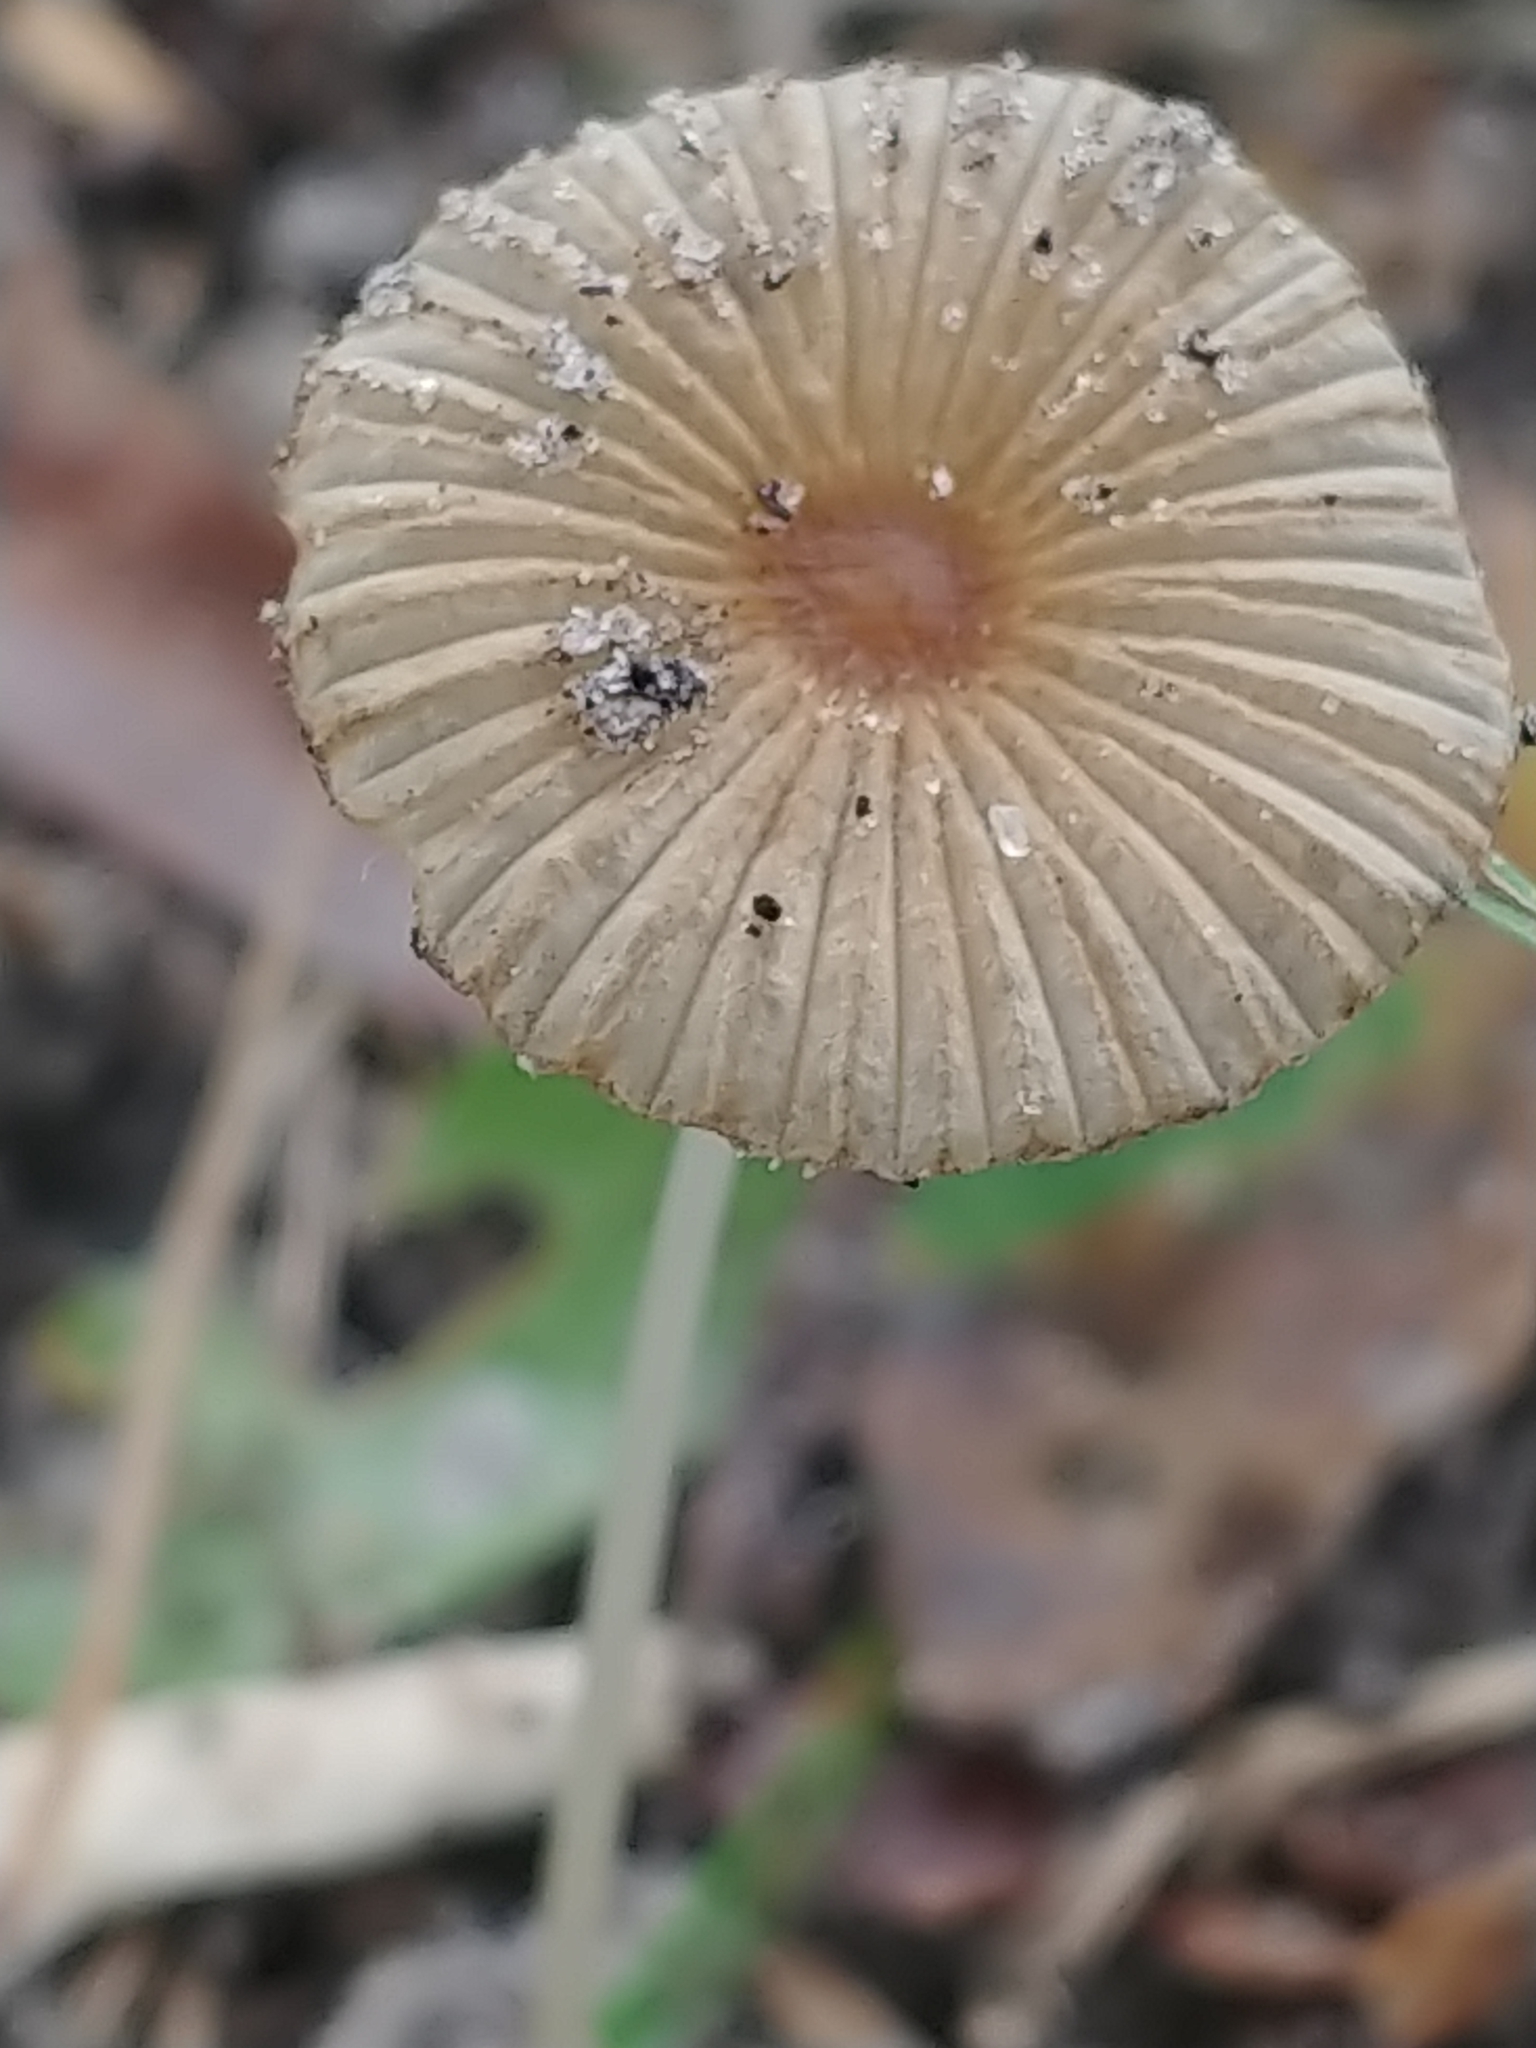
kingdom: Fungi
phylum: Basidiomycota
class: Agaricomycetes
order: Agaricales
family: Psathyrellaceae
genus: Parasola
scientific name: Parasola plicatilis
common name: Pleated inkcap
